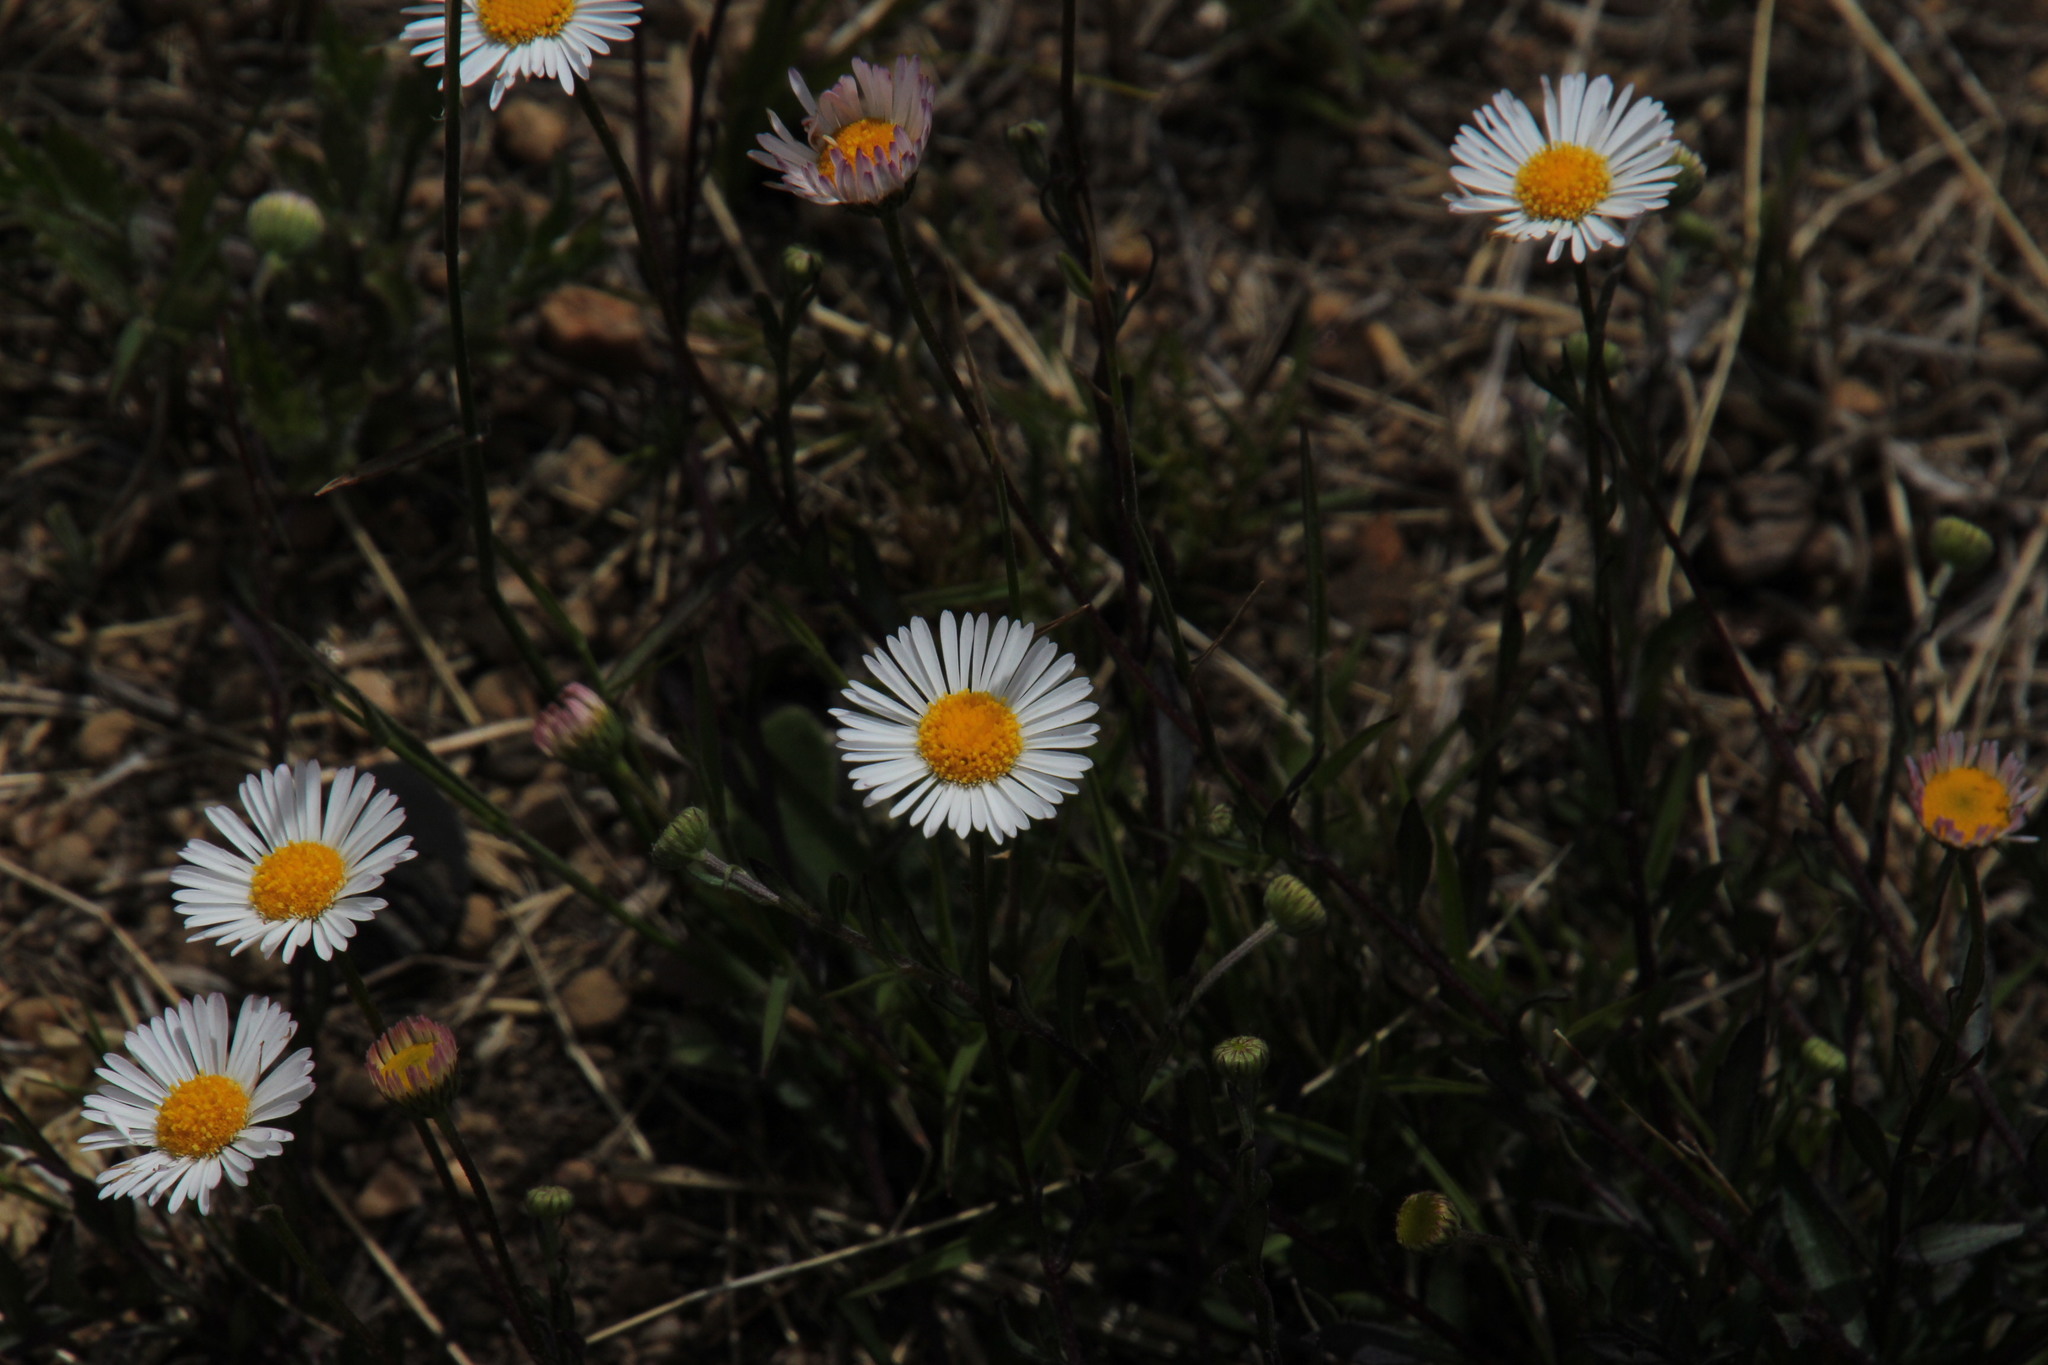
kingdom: Plantae
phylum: Tracheophyta
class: Magnoliopsida
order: Asterales
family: Asteraceae
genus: Erigeron
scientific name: Erigeron karvinskianus
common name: Mexican fleabane
